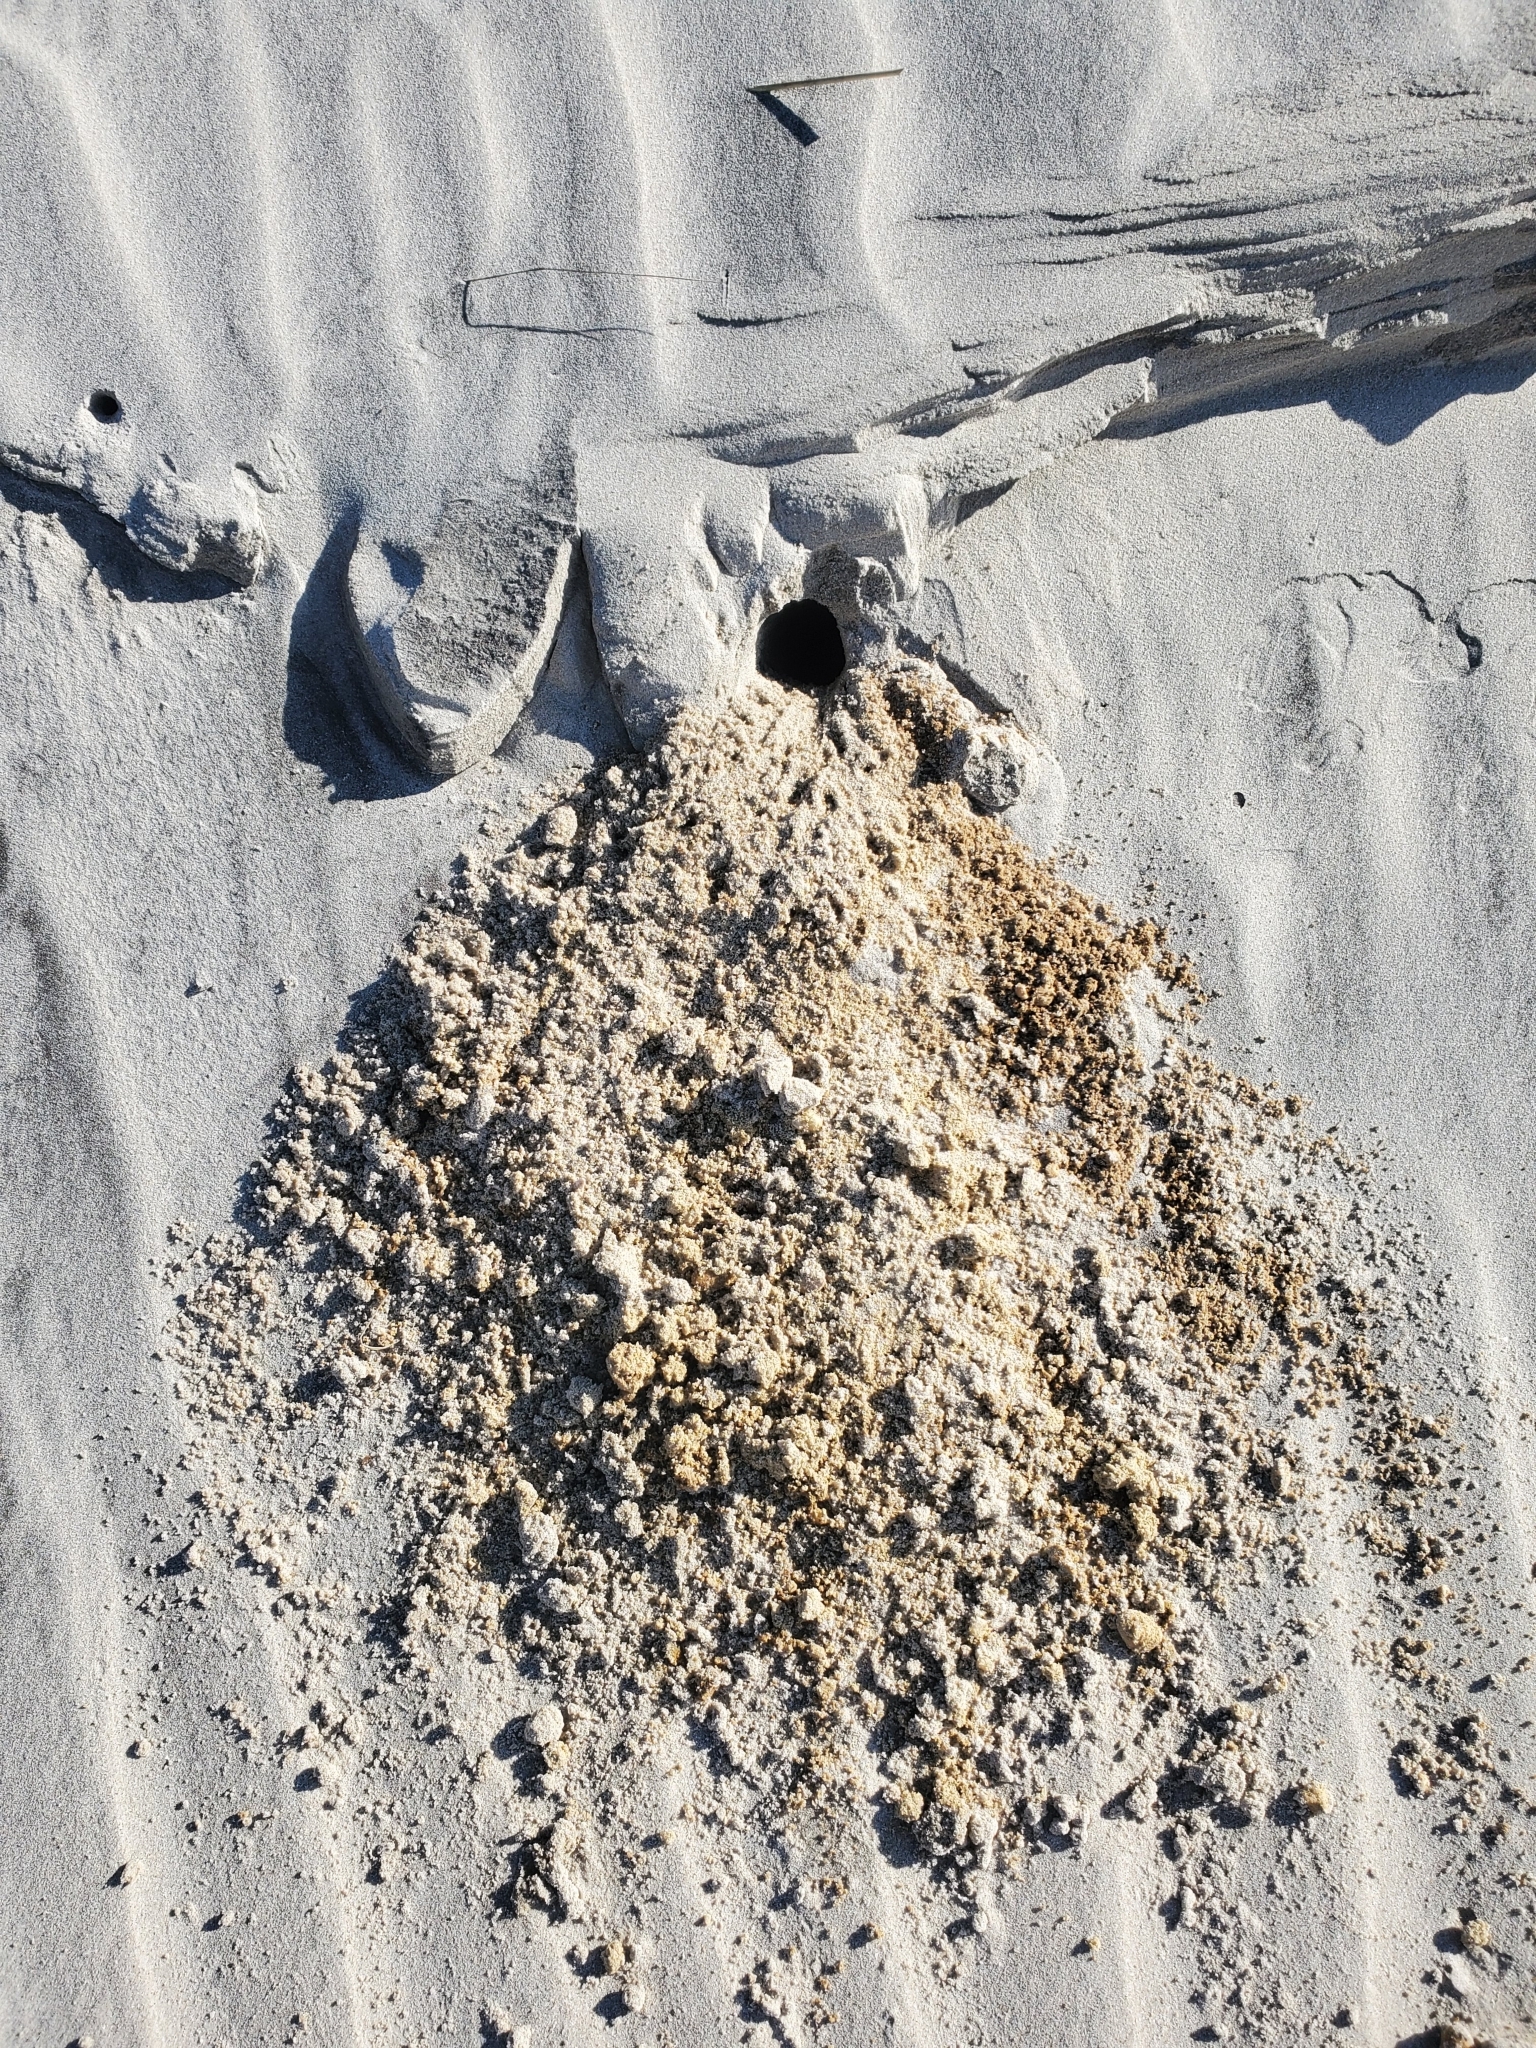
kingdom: Animalia
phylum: Arthropoda
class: Malacostraca
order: Decapoda
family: Ocypodidae
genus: Ocypode
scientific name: Ocypode quadrata
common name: Ghost crab
